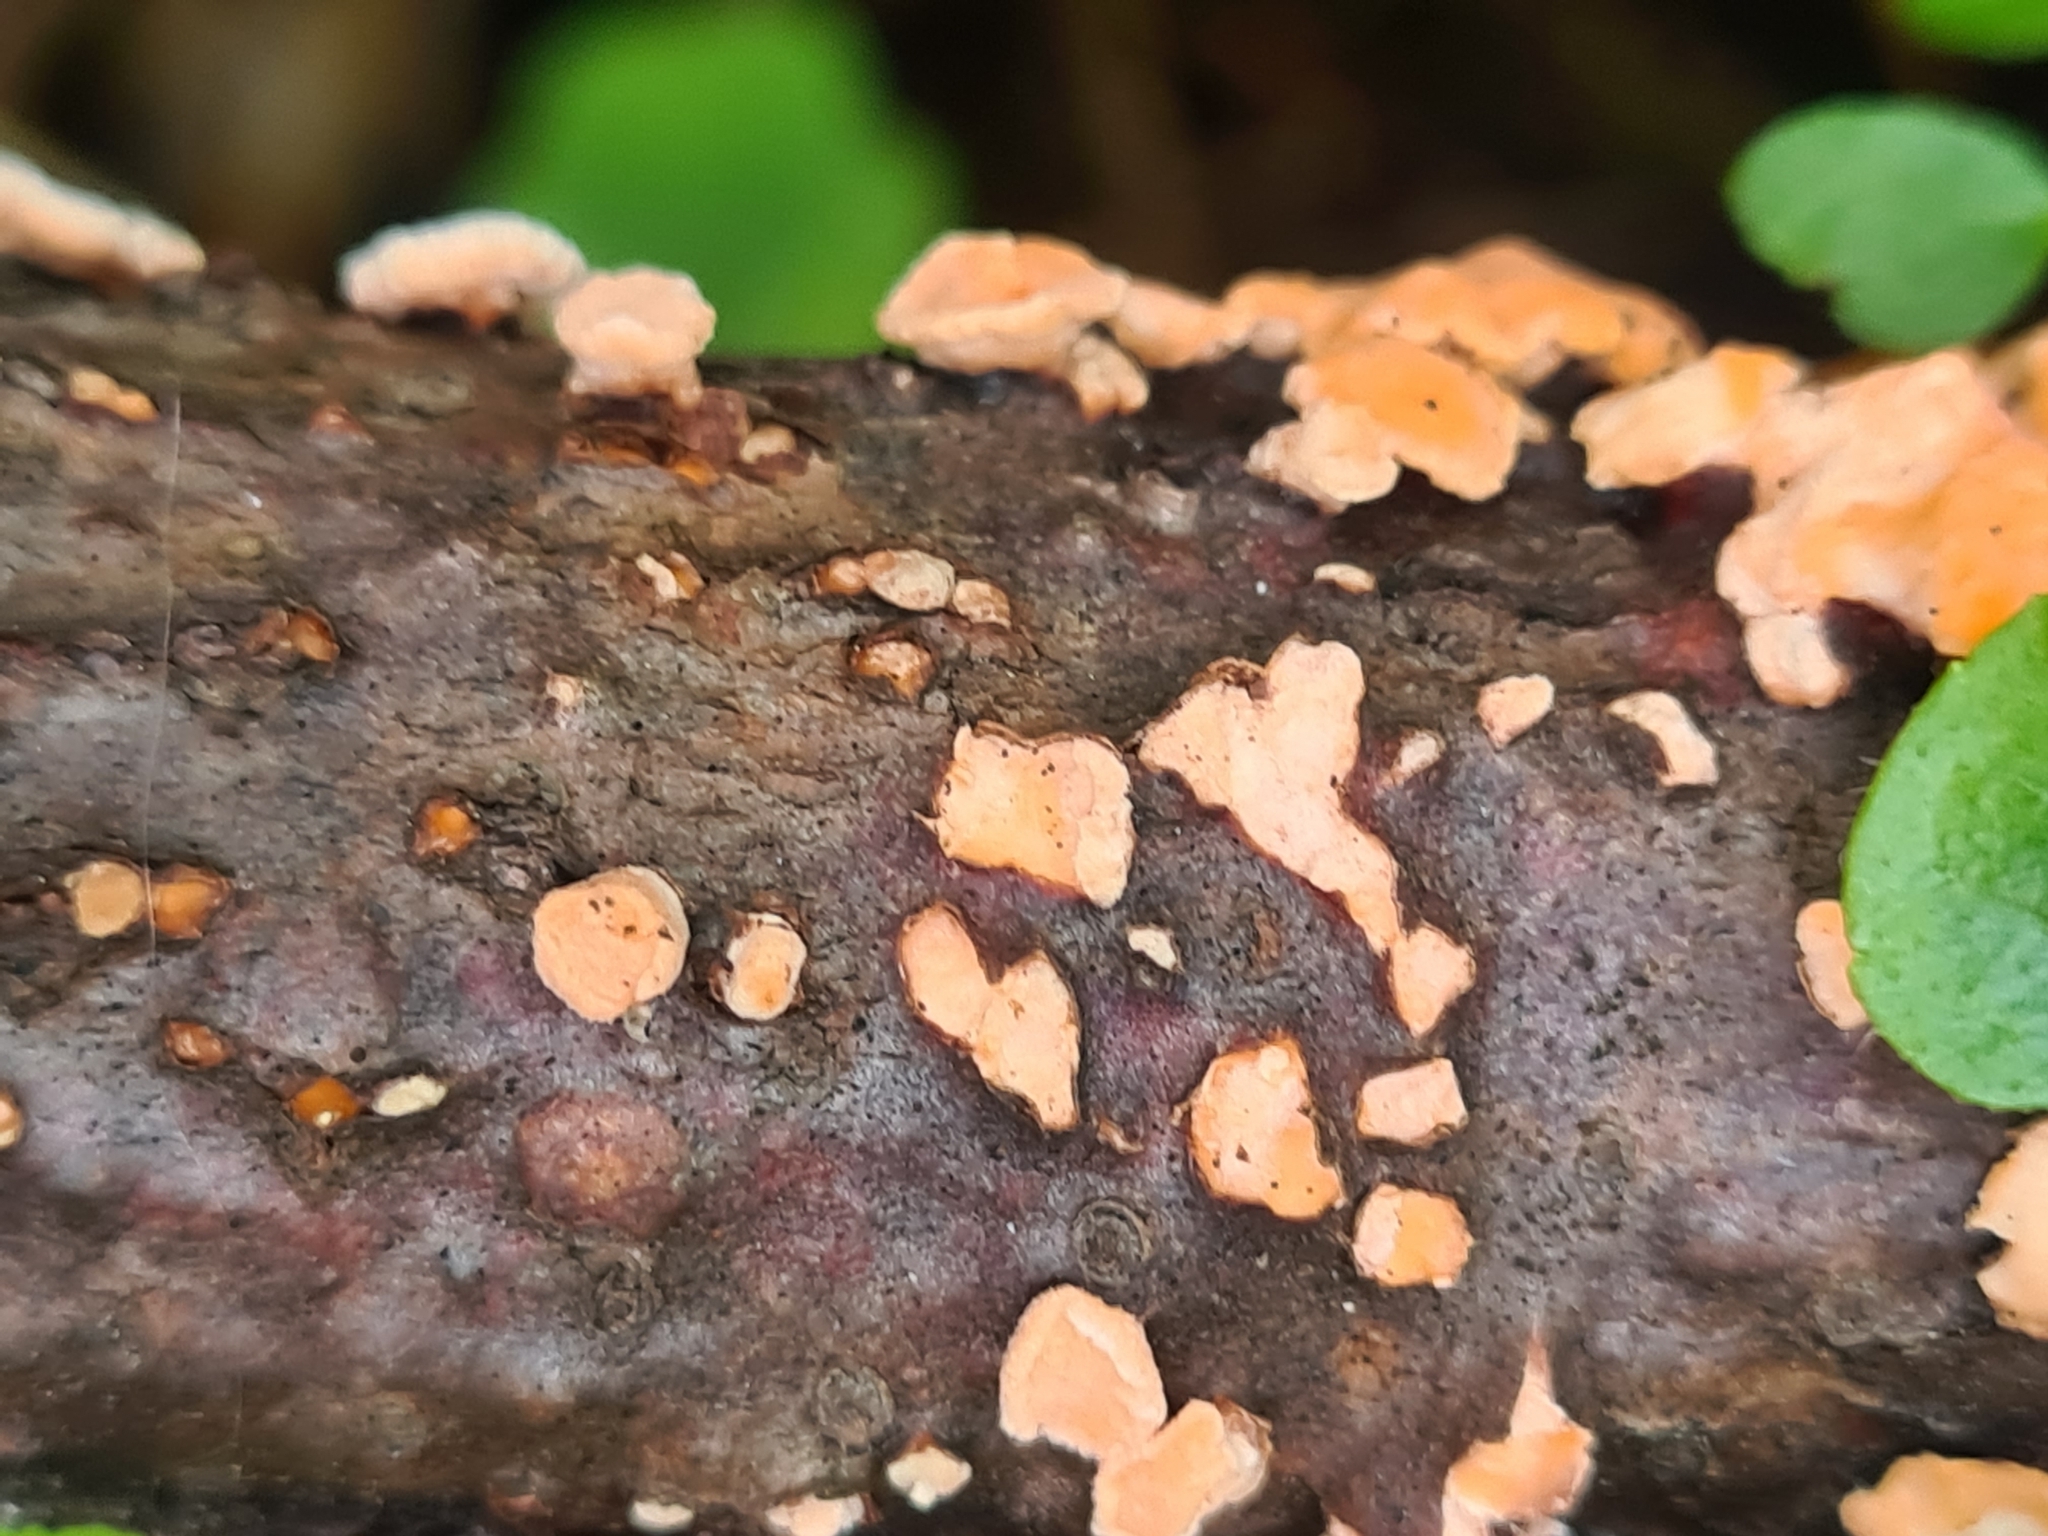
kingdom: Fungi
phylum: Basidiomycota
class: Agaricomycetes
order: Russulales
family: Stereaceae
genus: Aleurodiscus
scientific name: Aleurodiscus amorphus
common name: Orange discus
